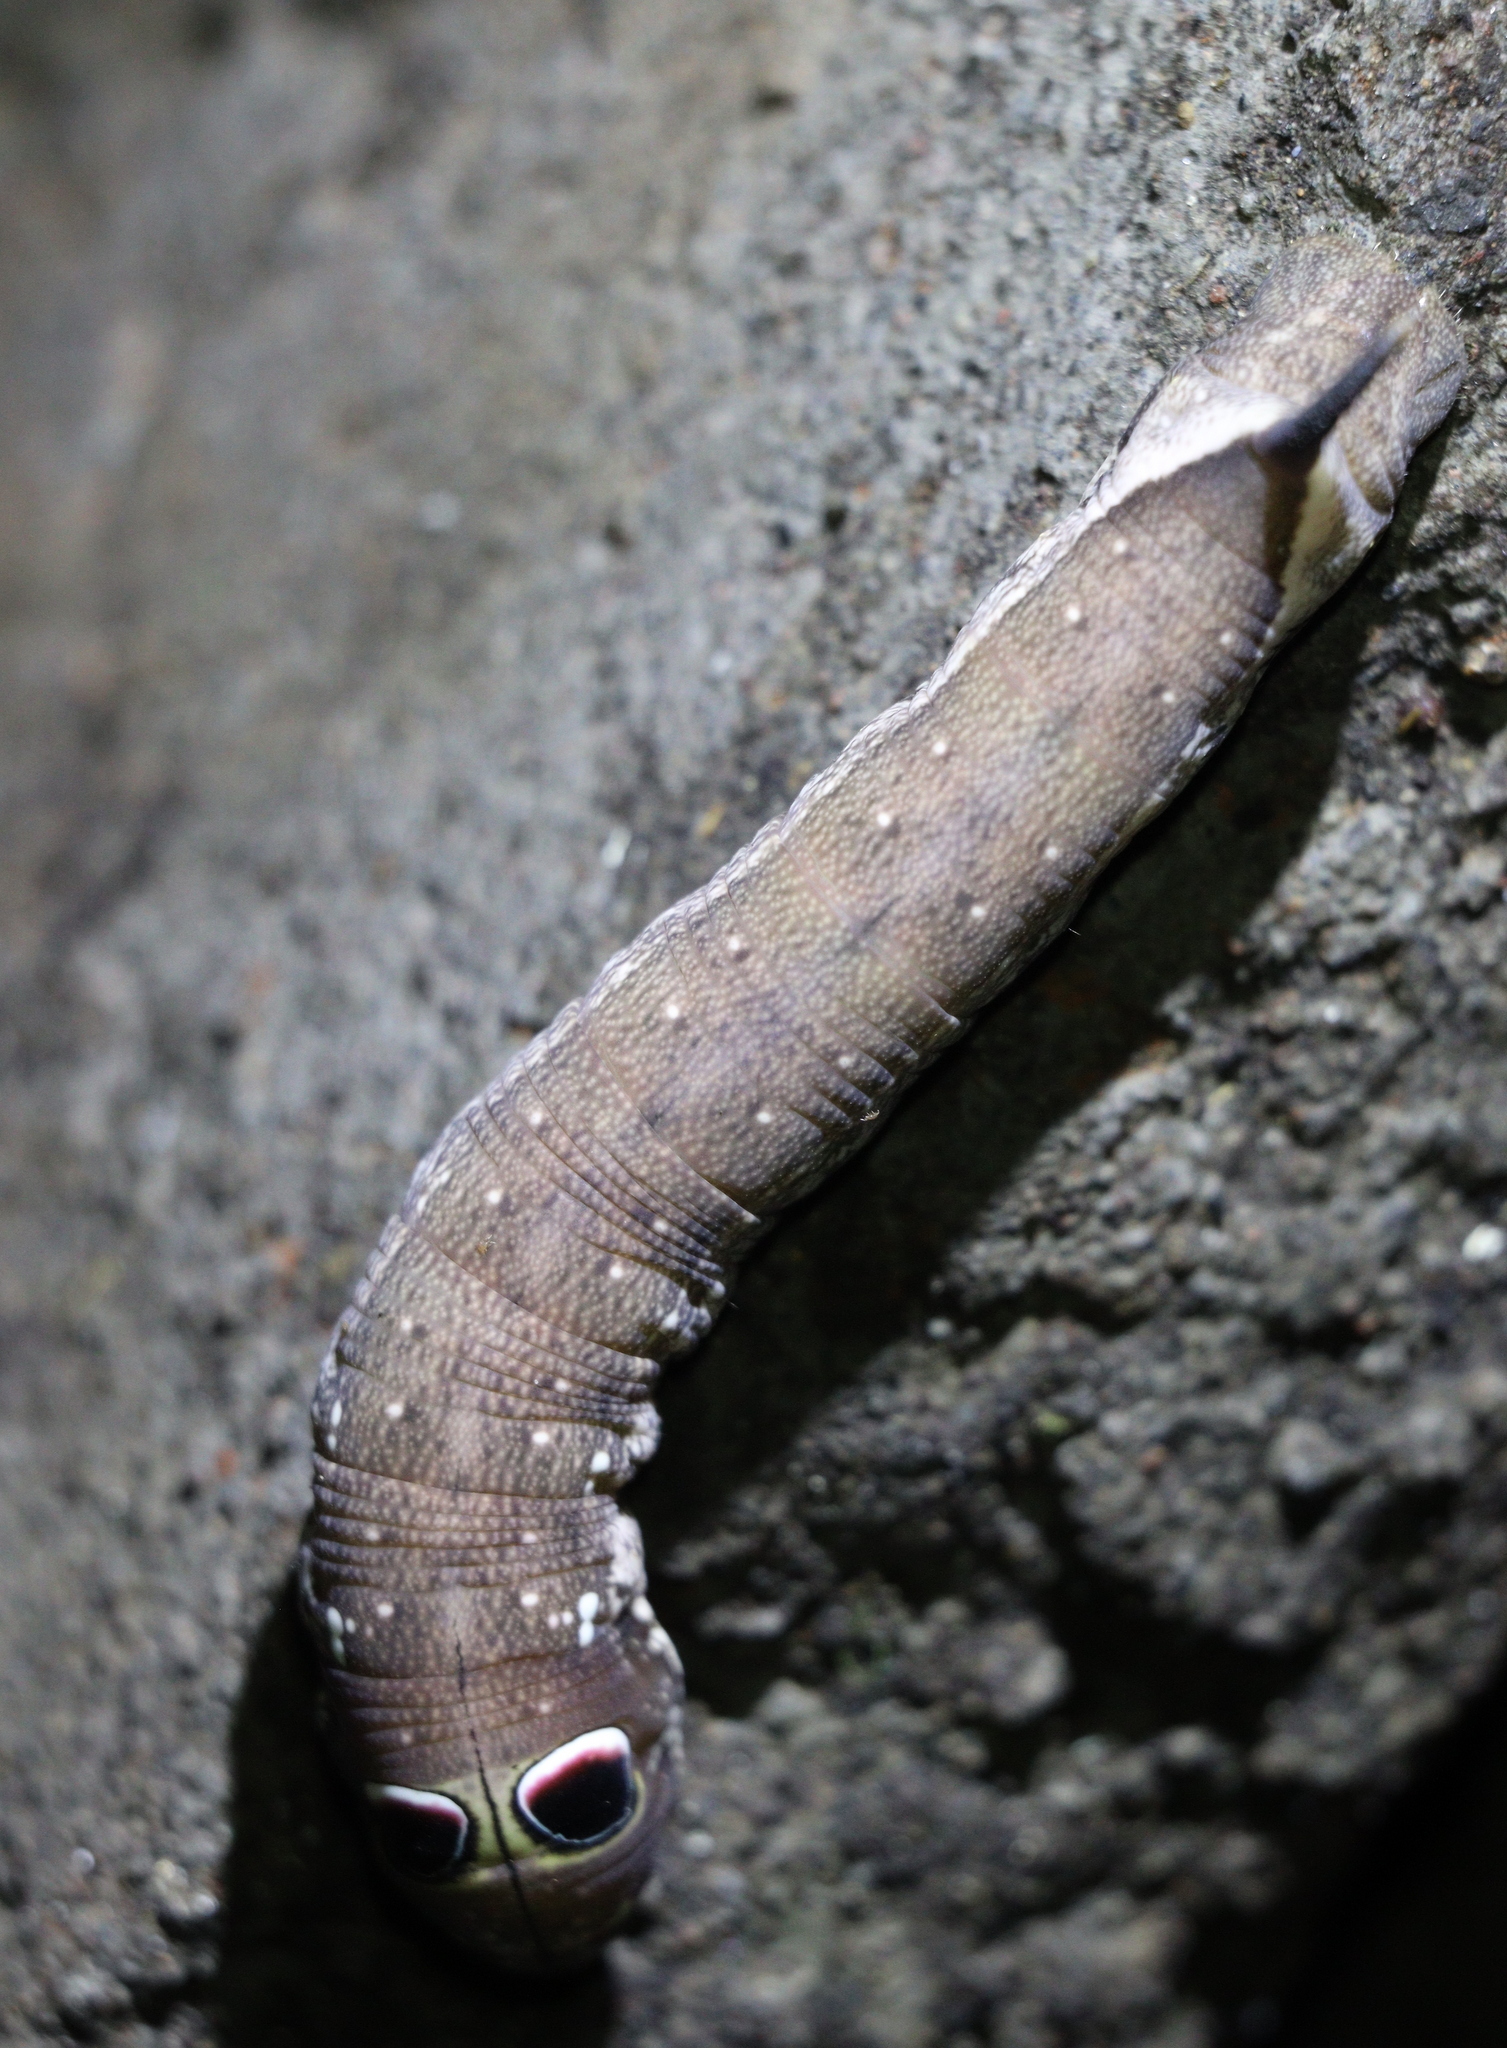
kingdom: Animalia
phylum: Arthropoda
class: Insecta
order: Lepidoptera
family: Sphingidae
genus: Theretra
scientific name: Theretra rhesus
